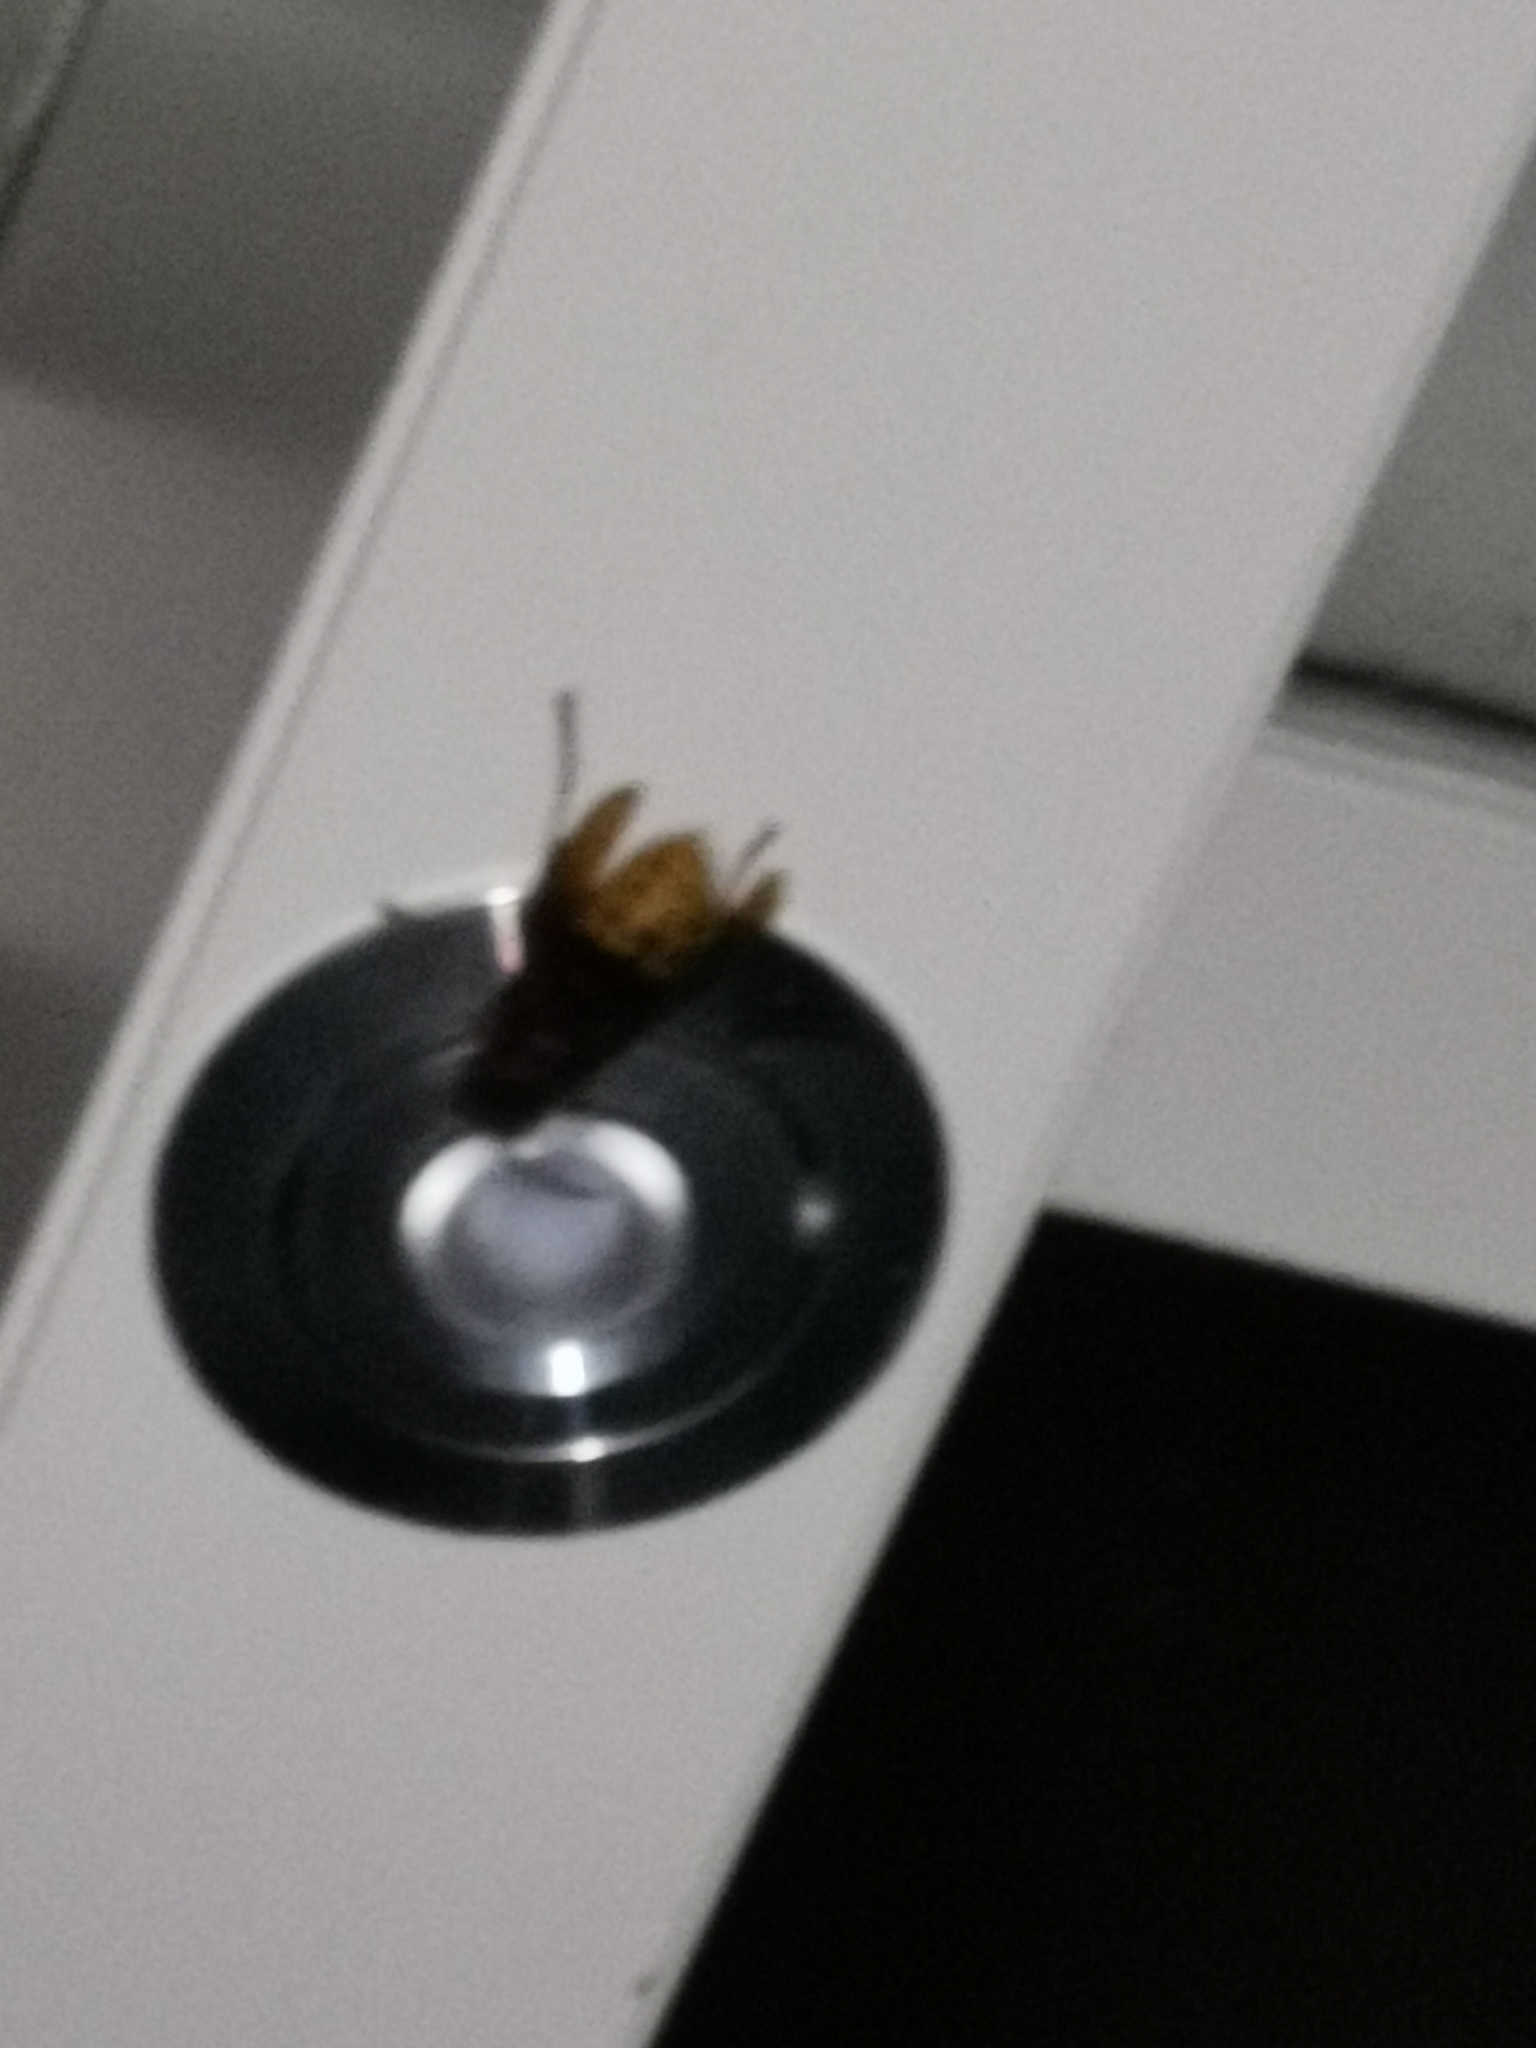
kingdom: Animalia
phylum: Arthropoda
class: Insecta
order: Hymenoptera
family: Vespidae
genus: Vespa
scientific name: Vespa crabro
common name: Hornet
